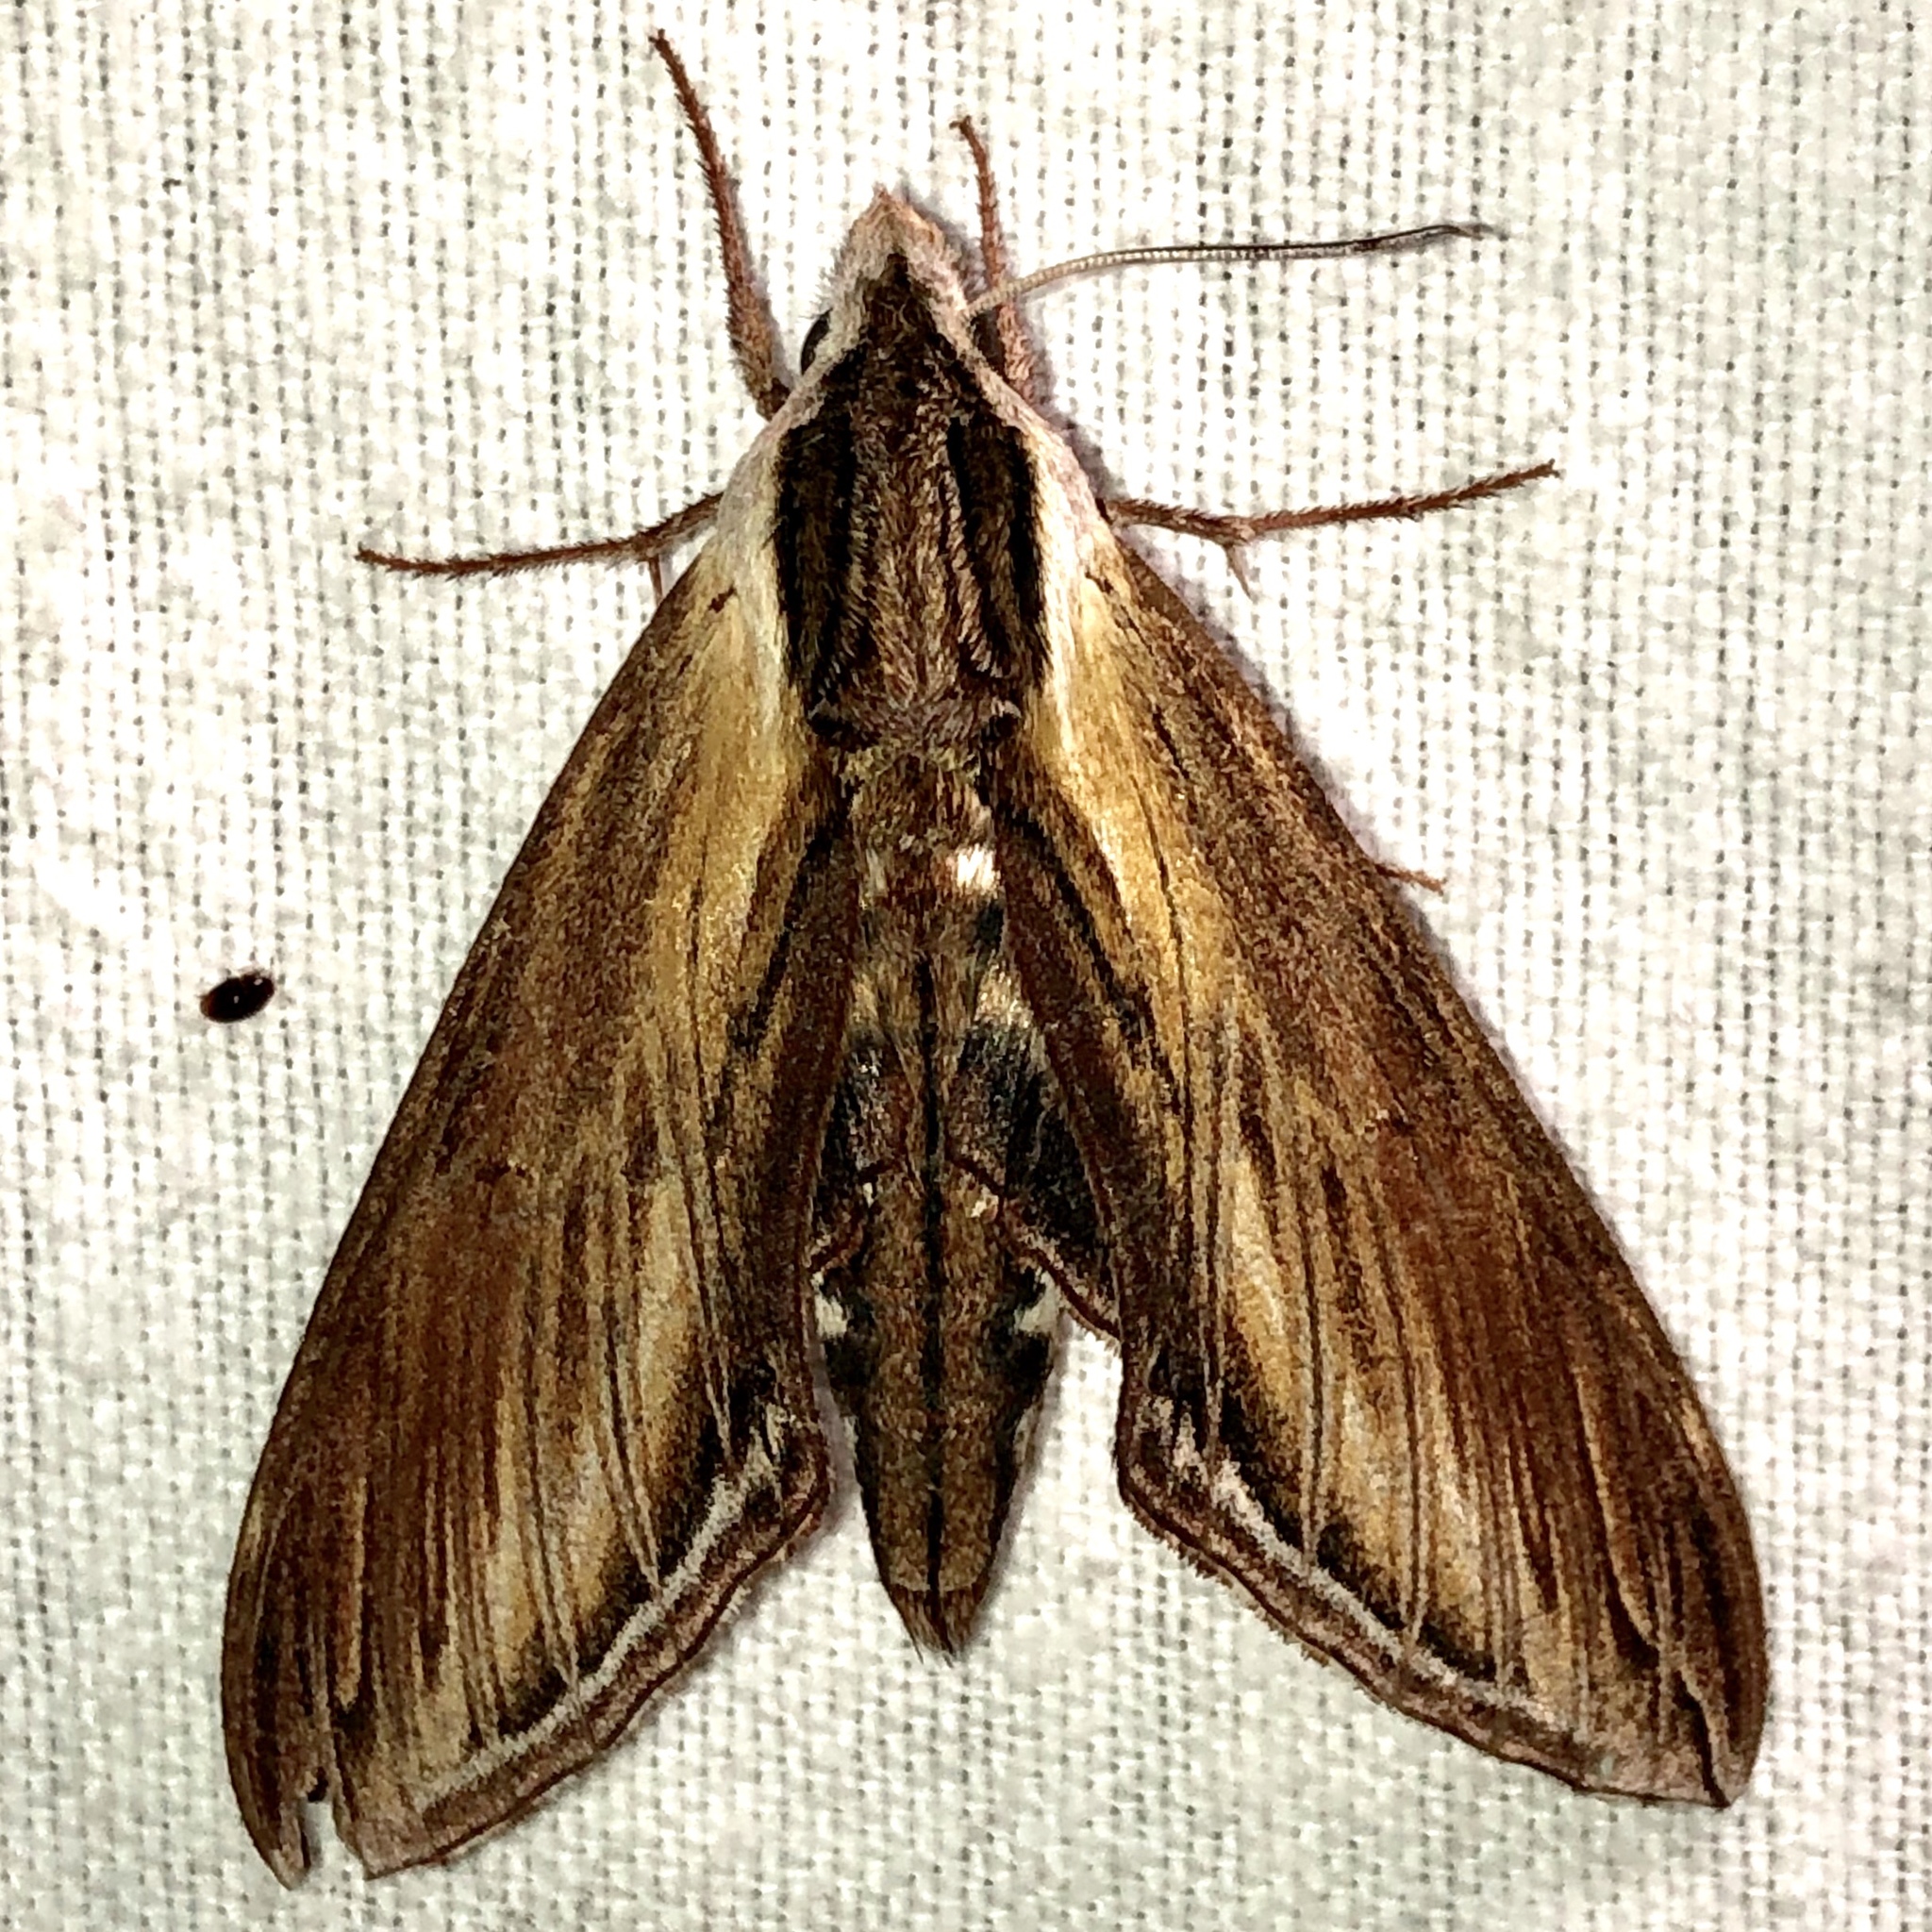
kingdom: Animalia
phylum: Arthropoda
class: Insecta
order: Lepidoptera
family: Sphingidae
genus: Sphinx
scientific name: Sphinx kalmiae
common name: Laurel sphinx
